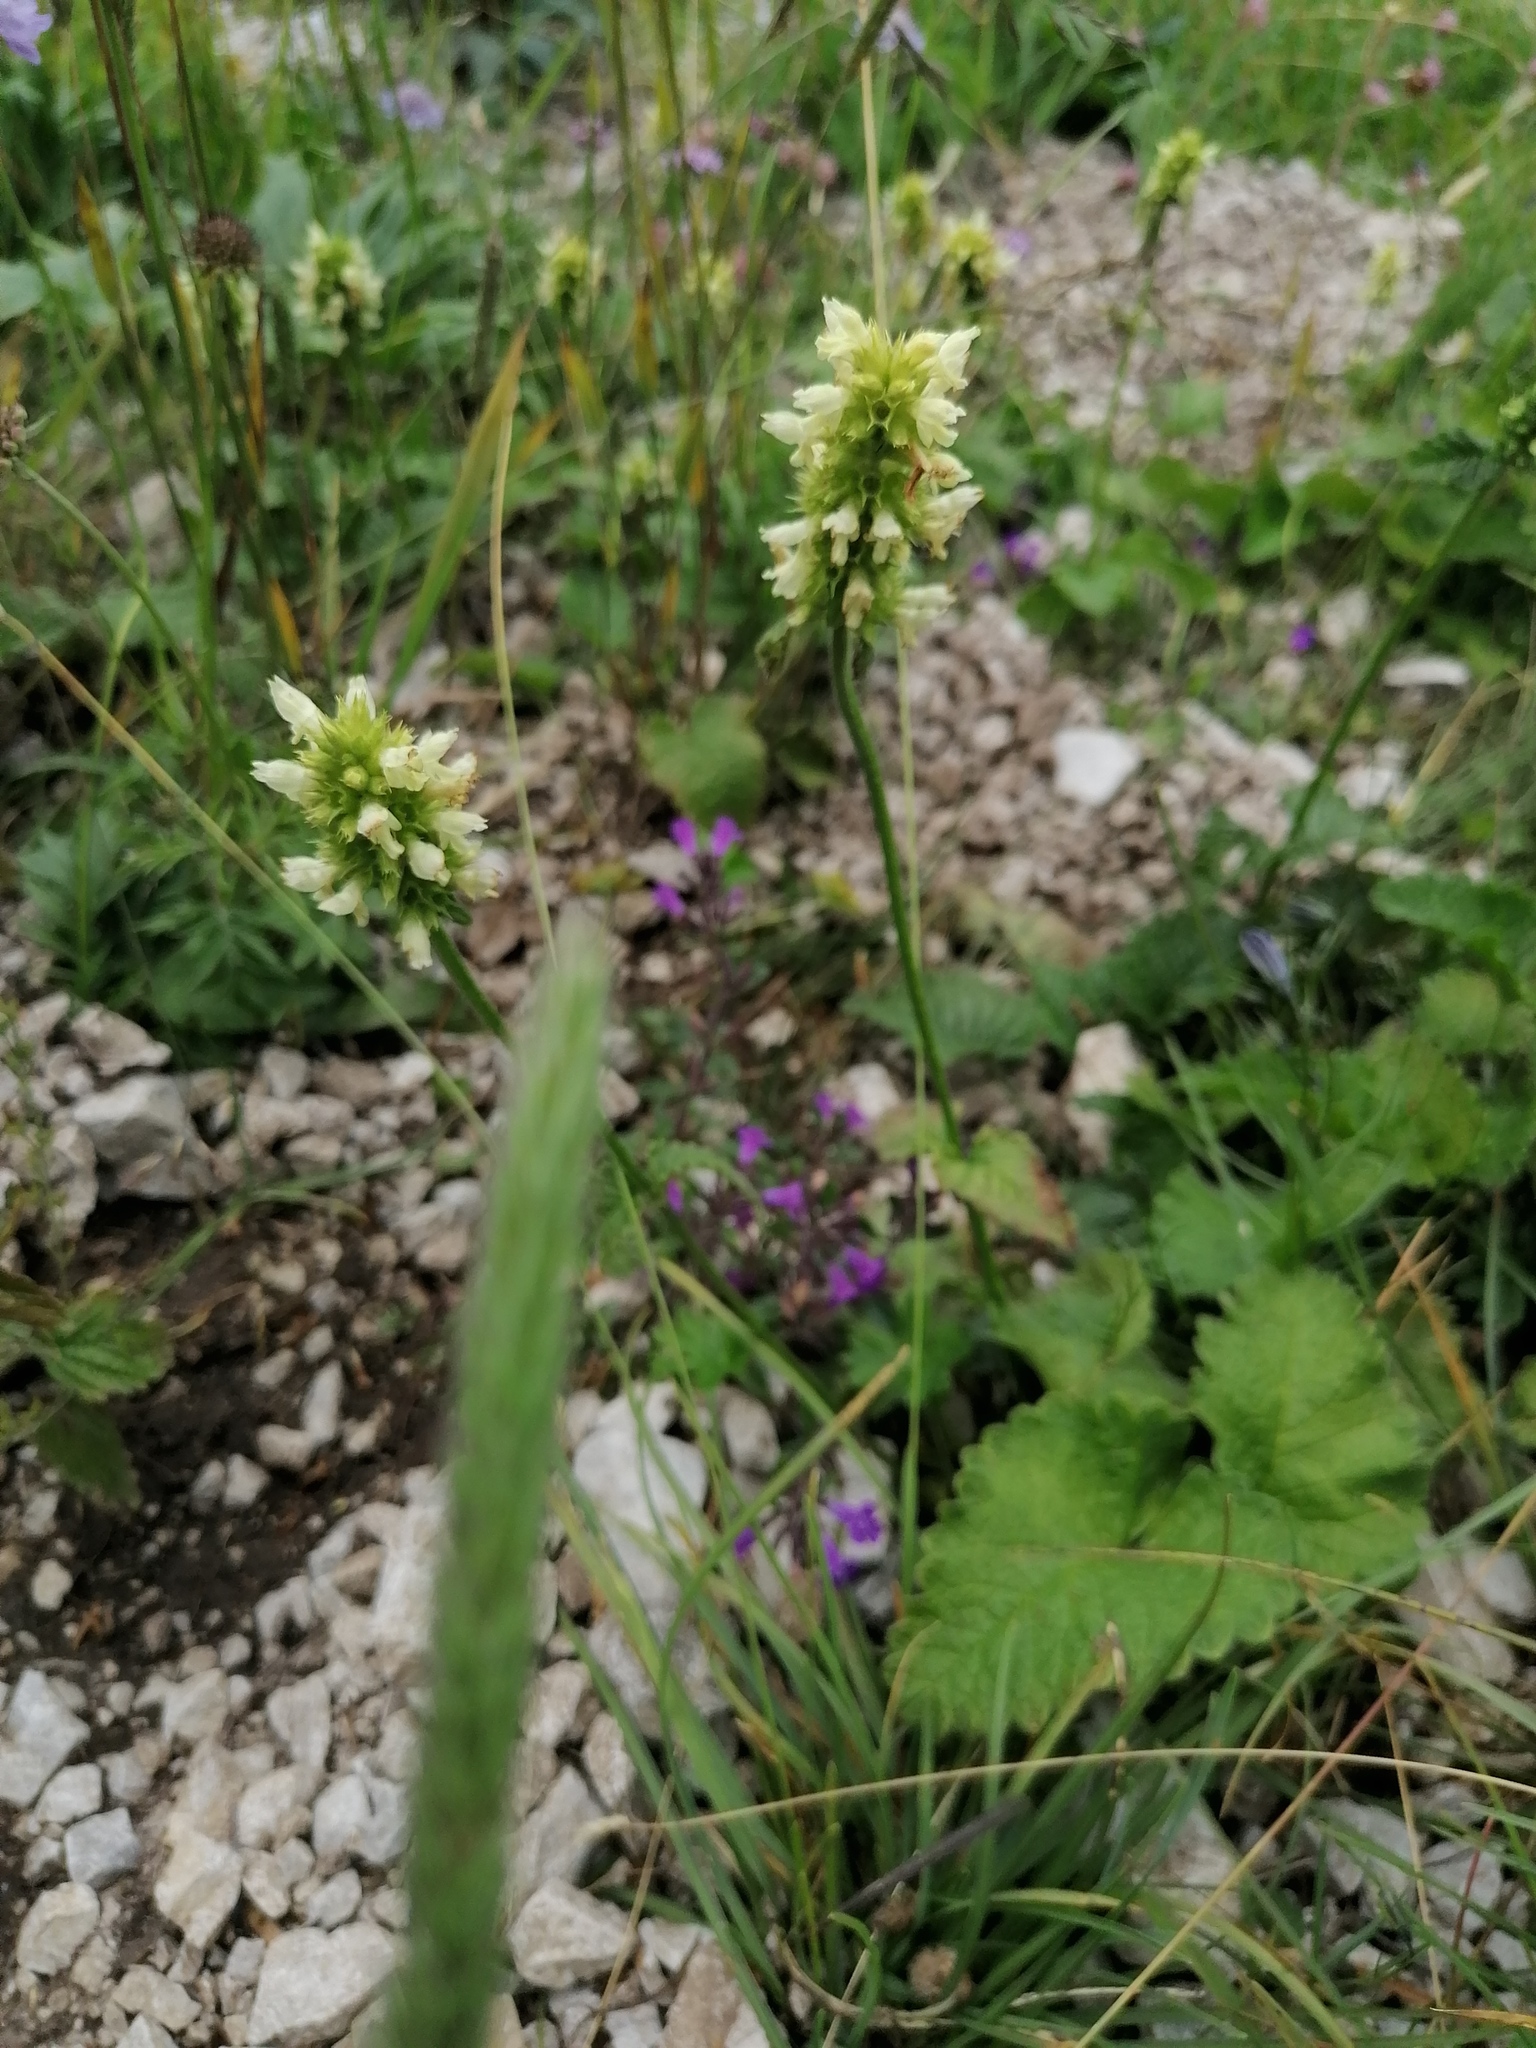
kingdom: Plantae
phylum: Tracheophyta
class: Magnoliopsida
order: Lamiales
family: Lamiaceae
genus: Betonica
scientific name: Betonica alopecuros
